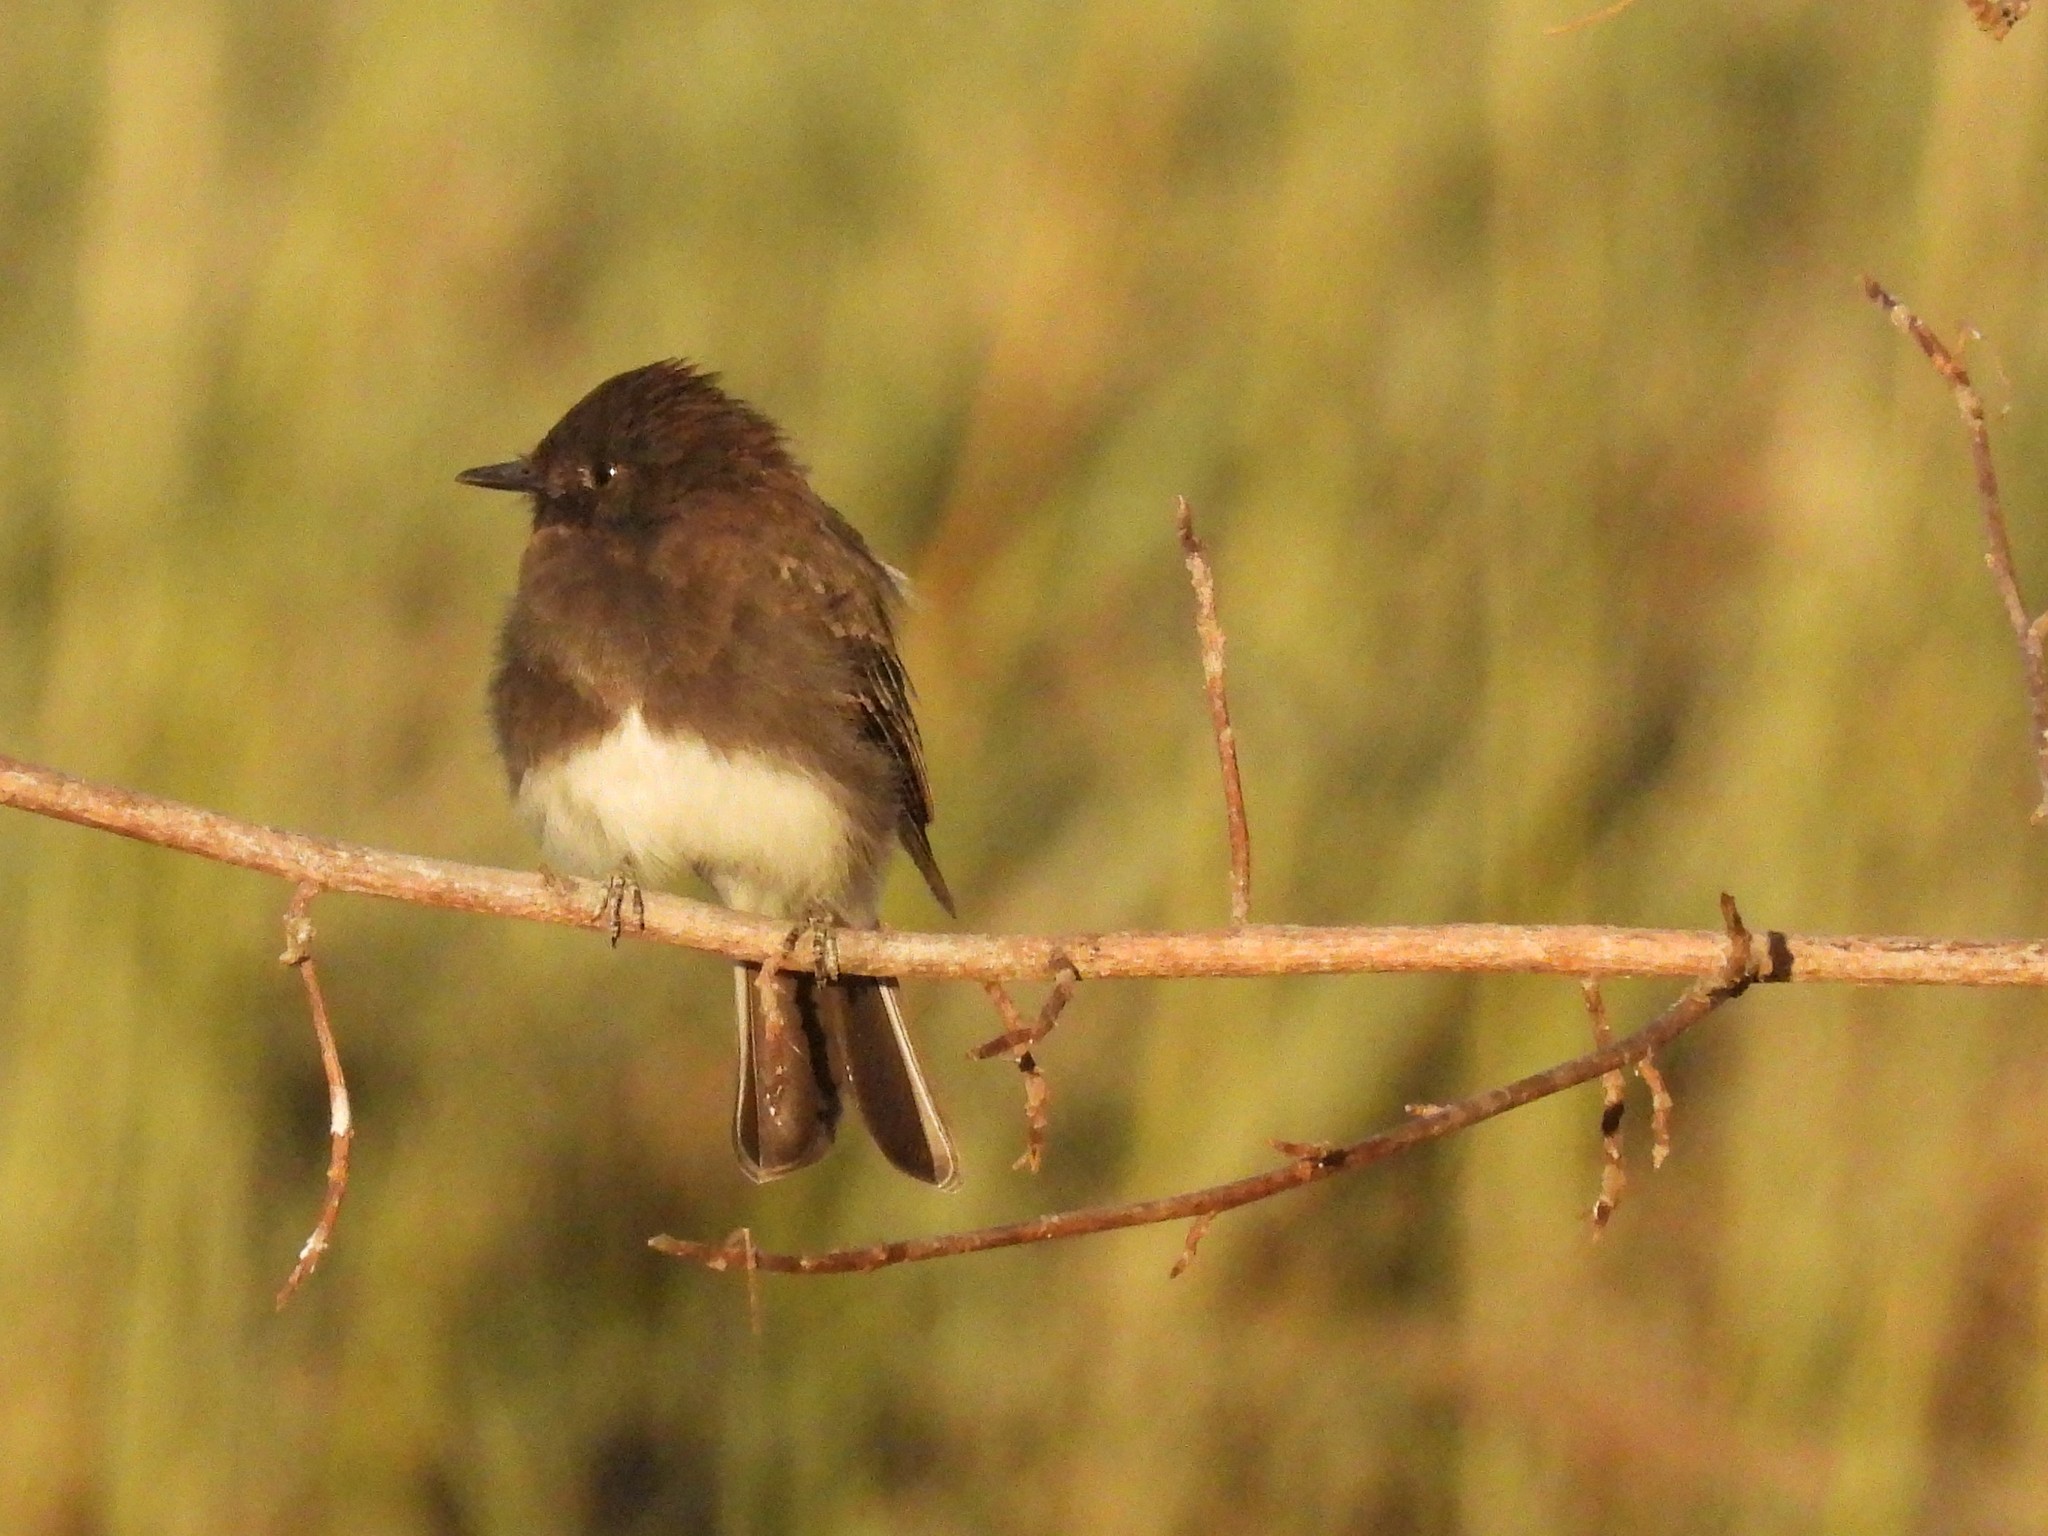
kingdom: Animalia
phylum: Chordata
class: Aves
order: Passeriformes
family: Tyrannidae
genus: Sayornis
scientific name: Sayornis nigricans
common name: Black phoebe
